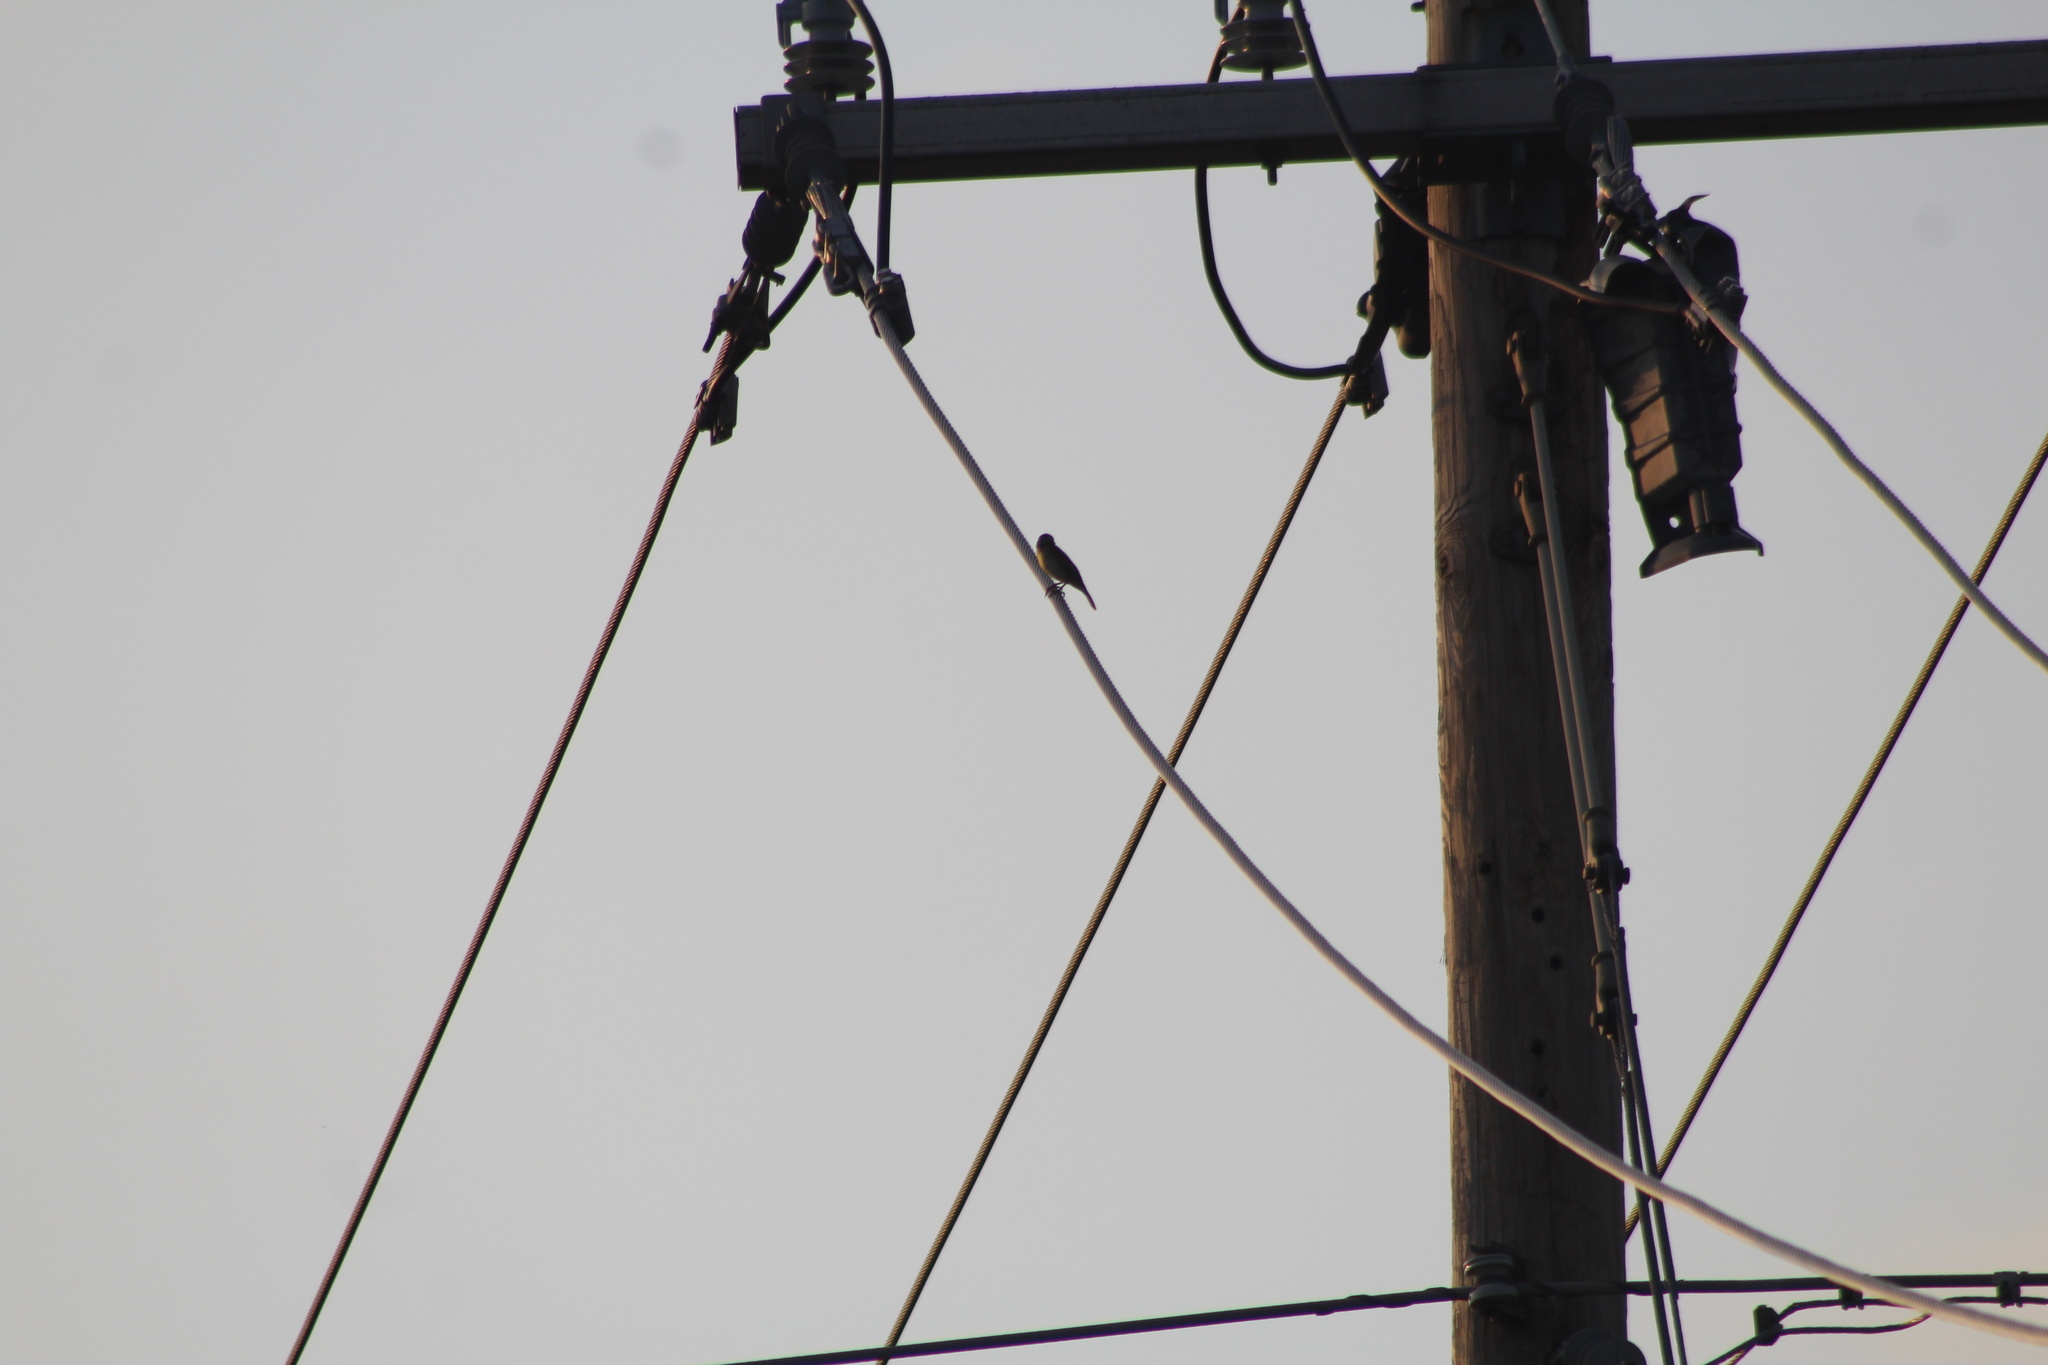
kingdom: Animalia
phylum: Chordata
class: Aves
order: Passeriformes
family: Cardinalidae
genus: Spiza
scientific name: Spiza americana
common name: Dickcissel
